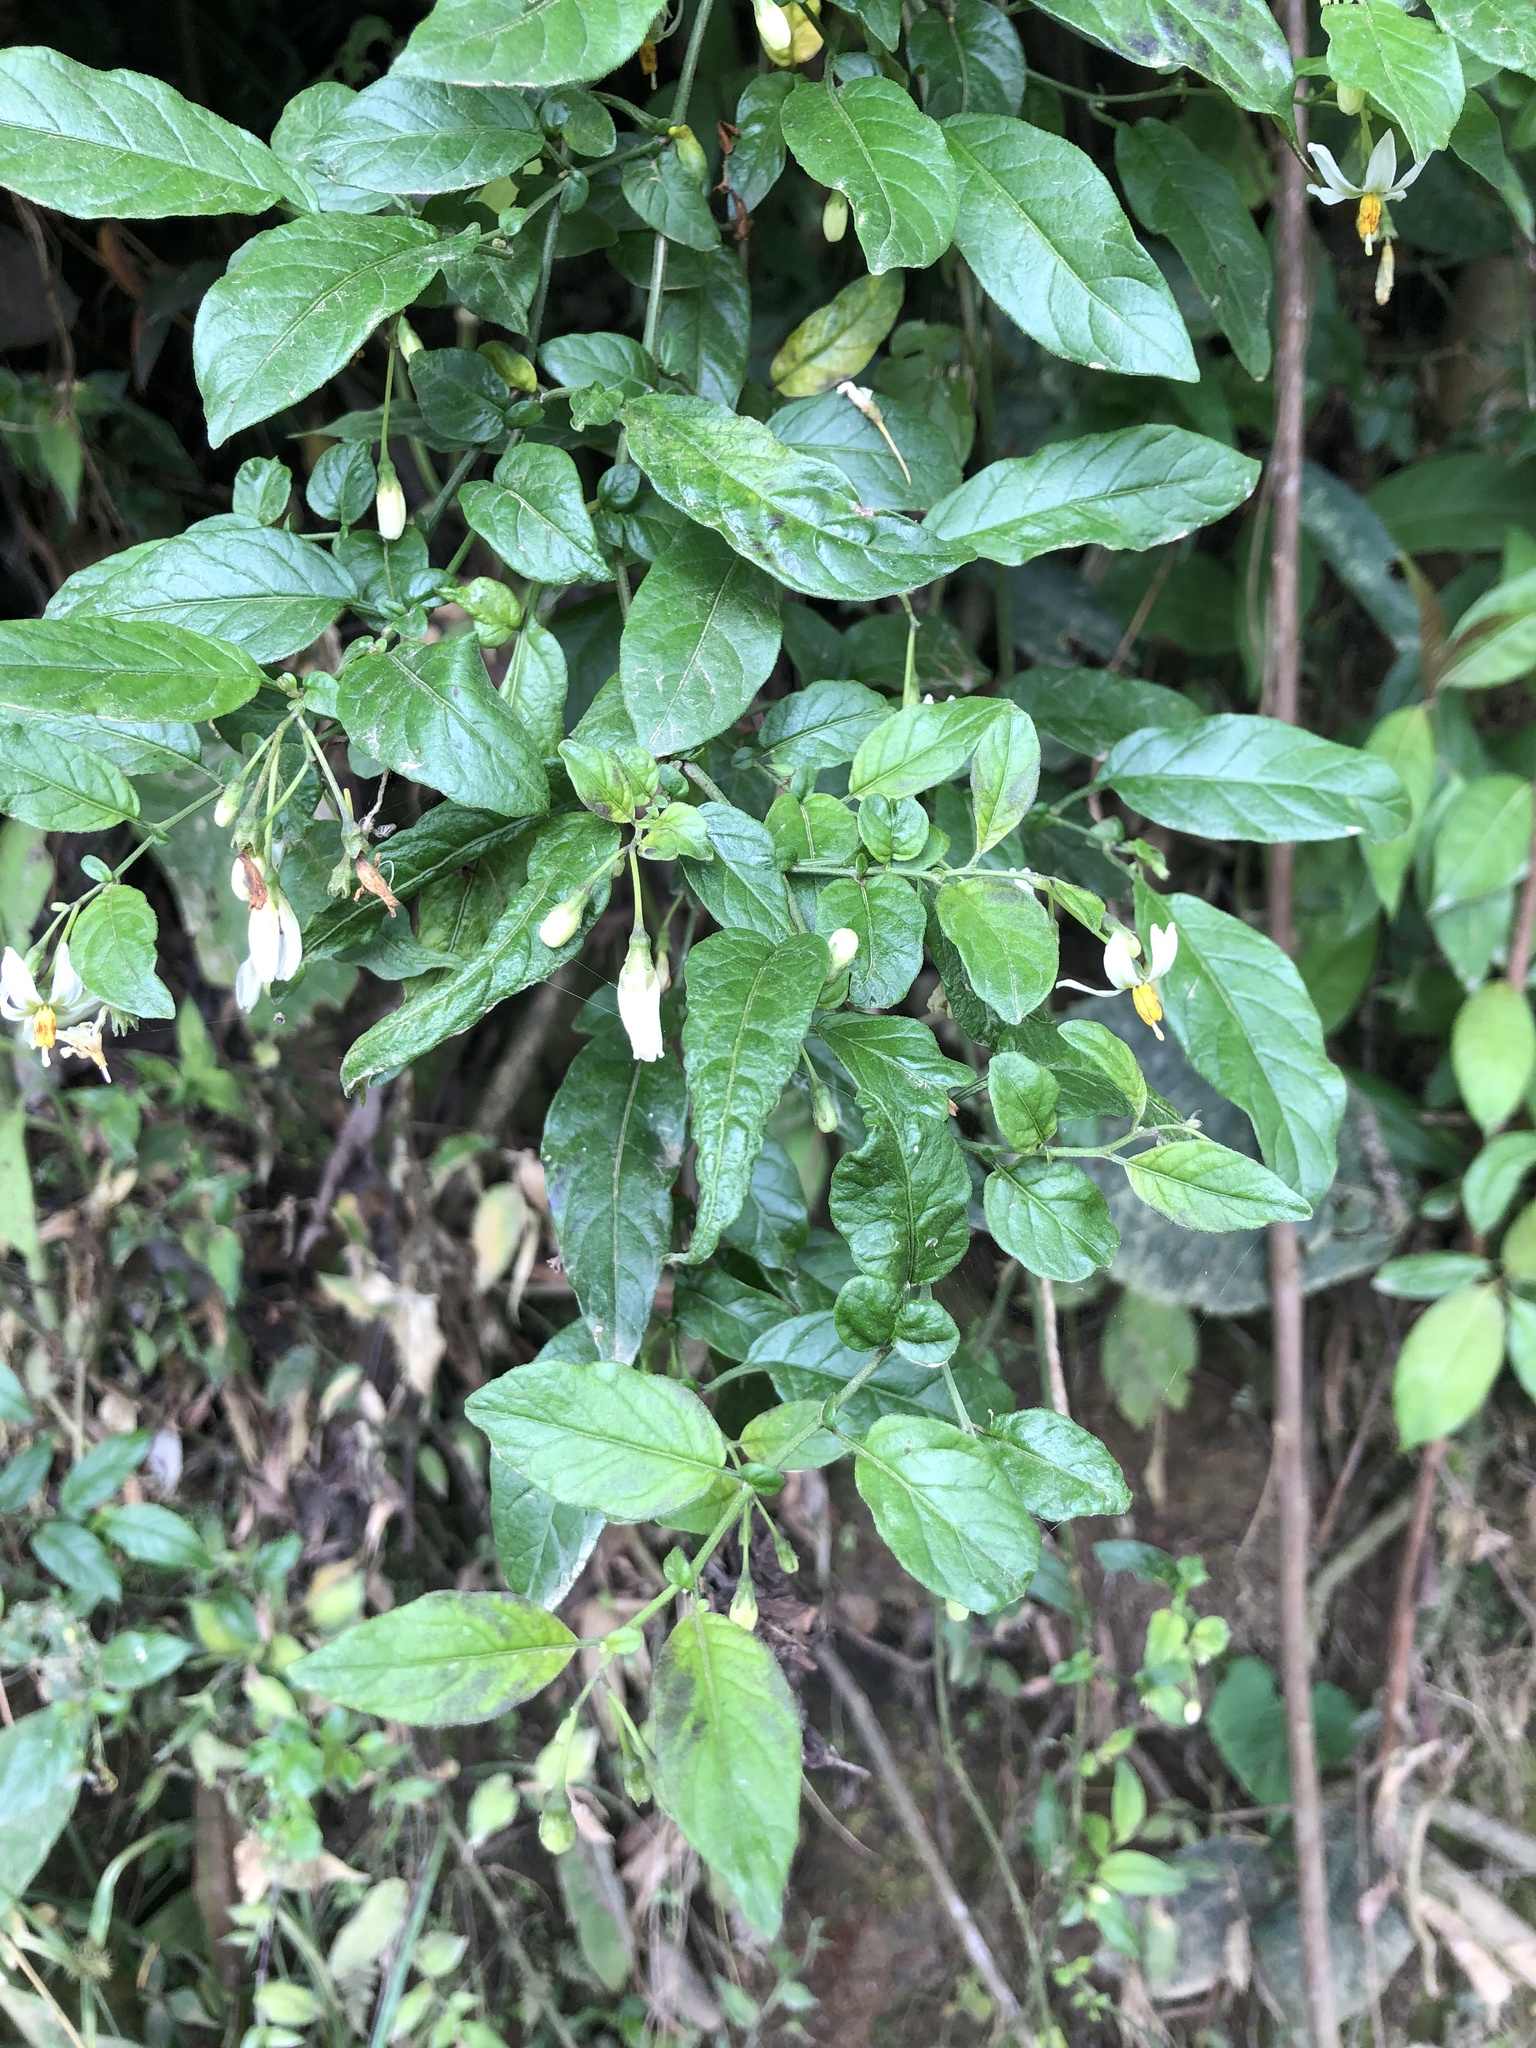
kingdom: Plantae
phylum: Tracheophyta
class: Magnoliopsida
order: Solanales
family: Solanaceae
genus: Solanum
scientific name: Solanum sodiroi
